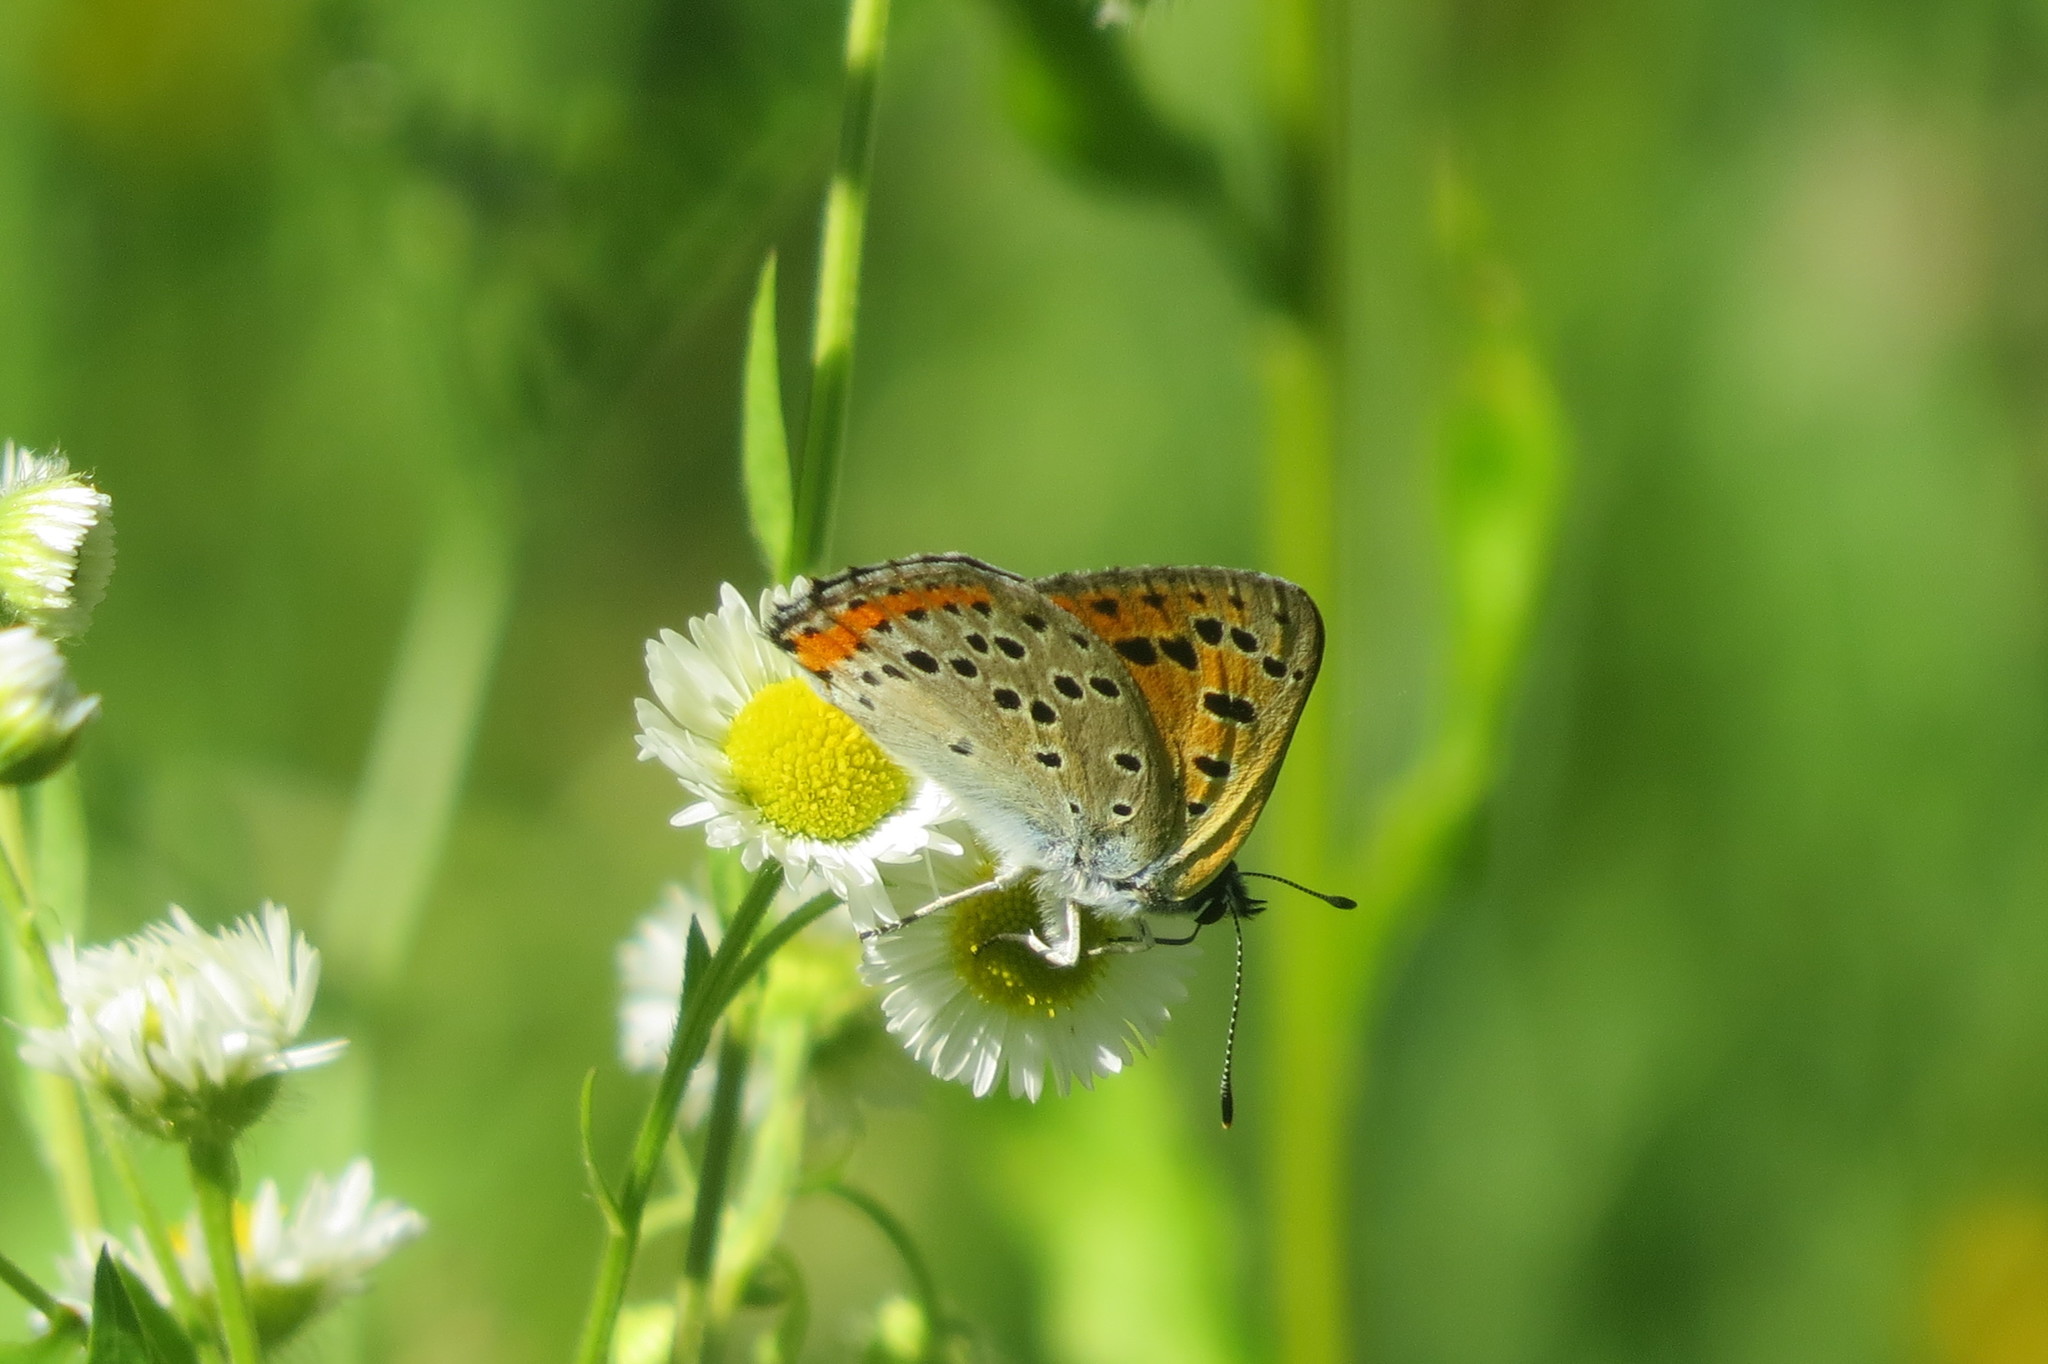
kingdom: Animalia
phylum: Arthropoda
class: Insecta
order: Lepidoptera
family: Lycaenidae
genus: Lycaena
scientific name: Lycaena alciphron
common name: Purple-shot copper
